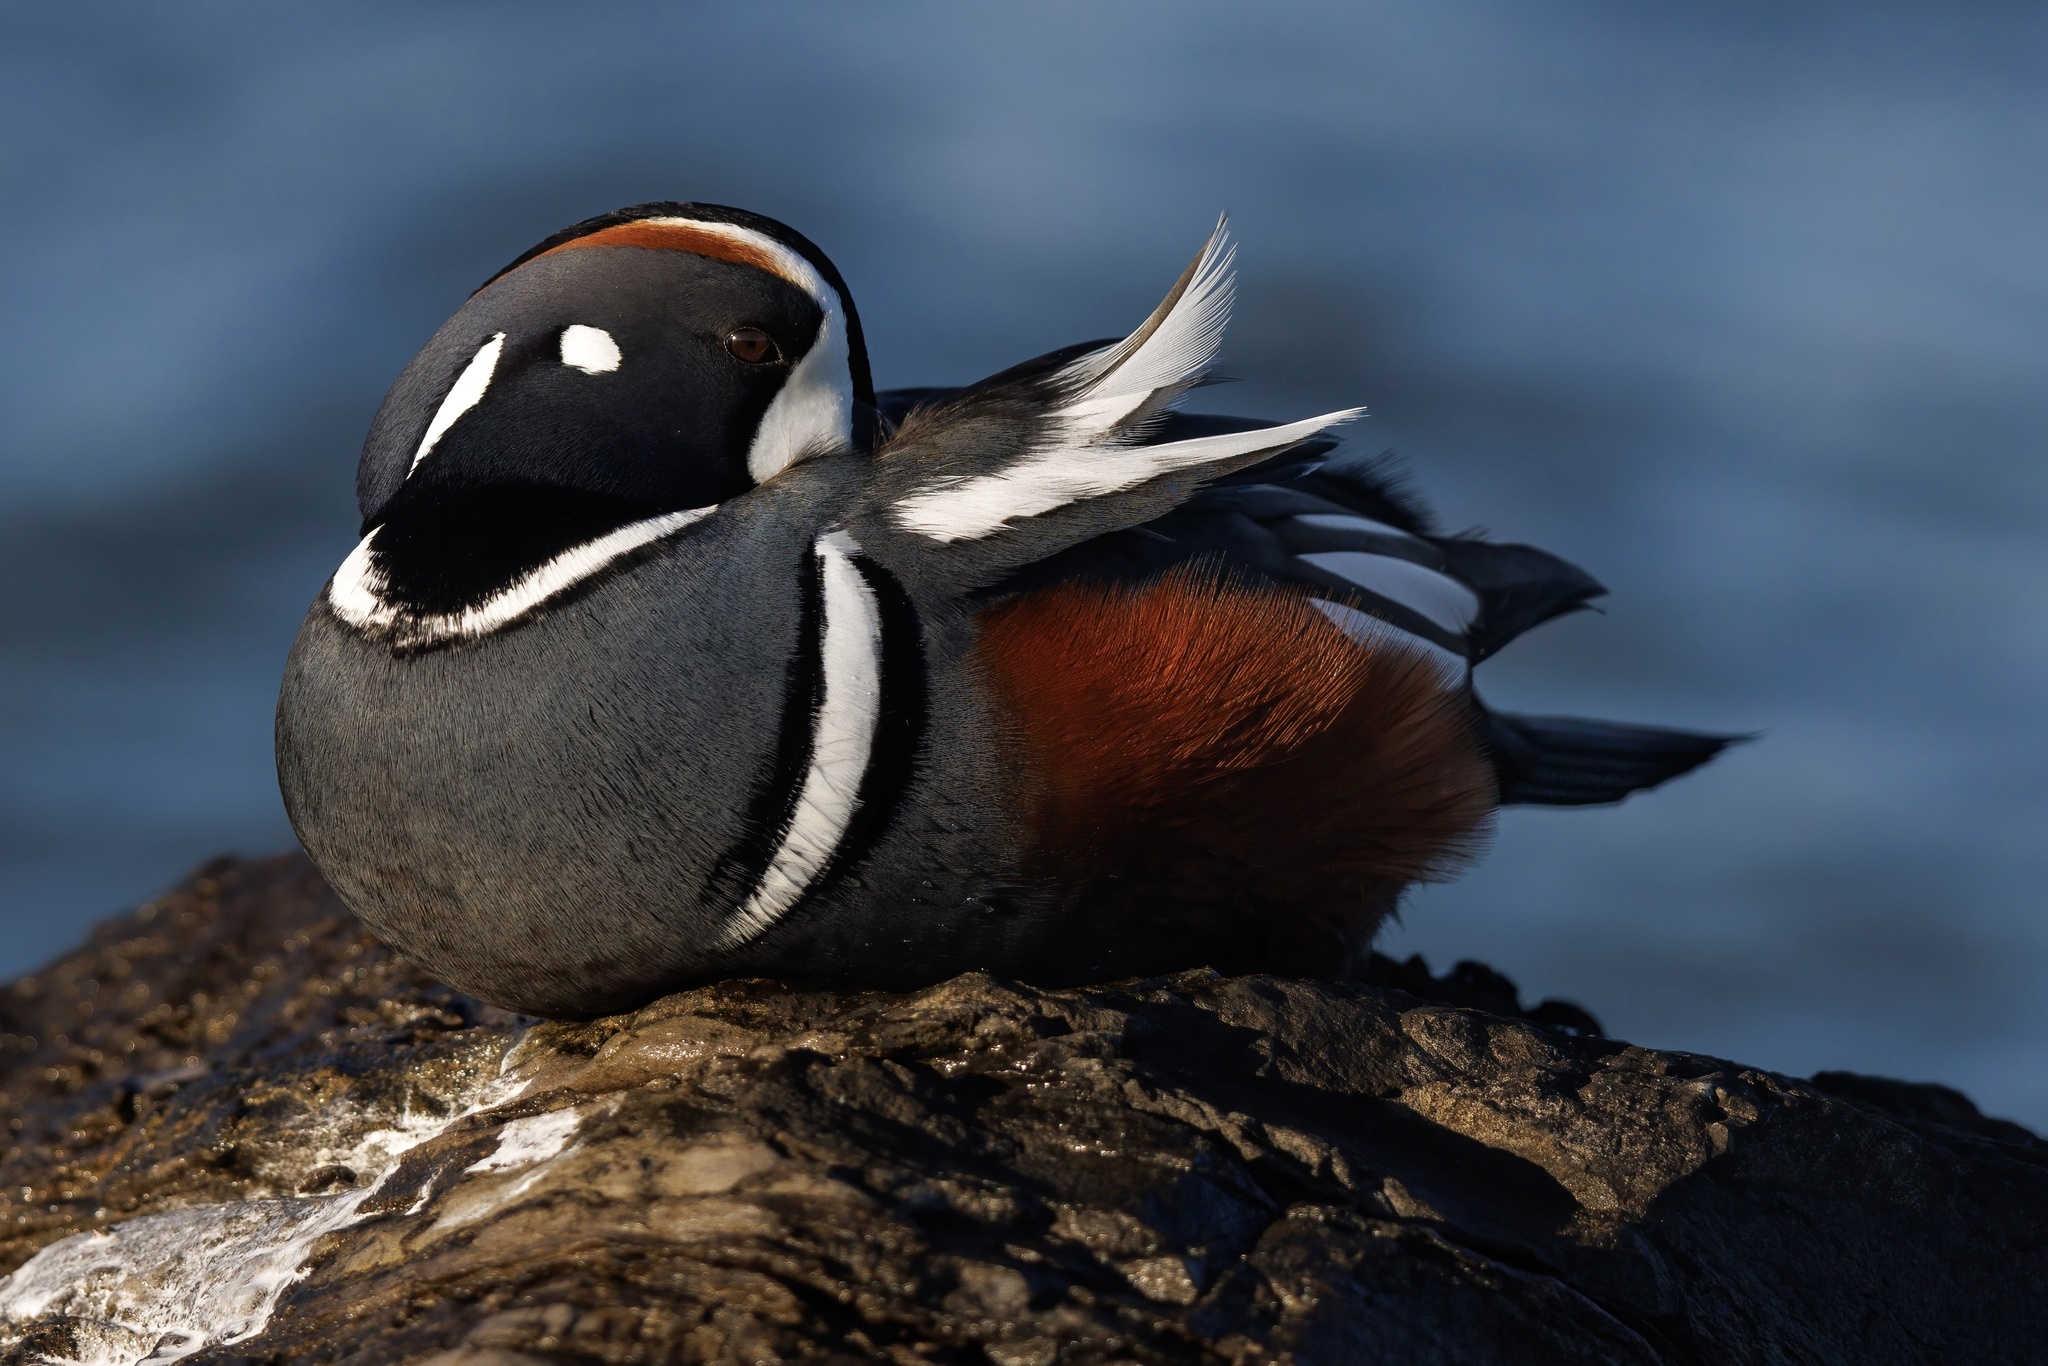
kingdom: Animalia
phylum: Chordata
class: Aves
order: Anseriformes
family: Anatidae
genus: Histrionicus
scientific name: Histrionicus histrionicus
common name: Harlequin duck
